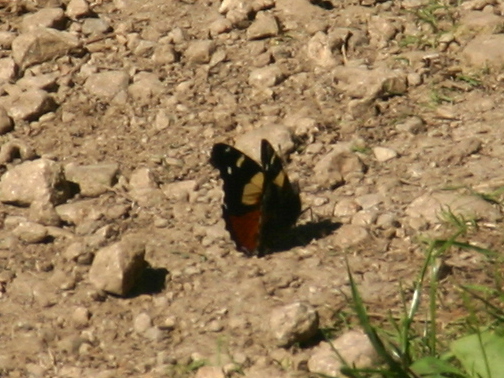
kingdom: Animalia
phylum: Arthropoda
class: Insecta
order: Lepidoptera
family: Nymphalidae
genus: Vanessa
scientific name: Vanessa itea
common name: Yellow admiral
